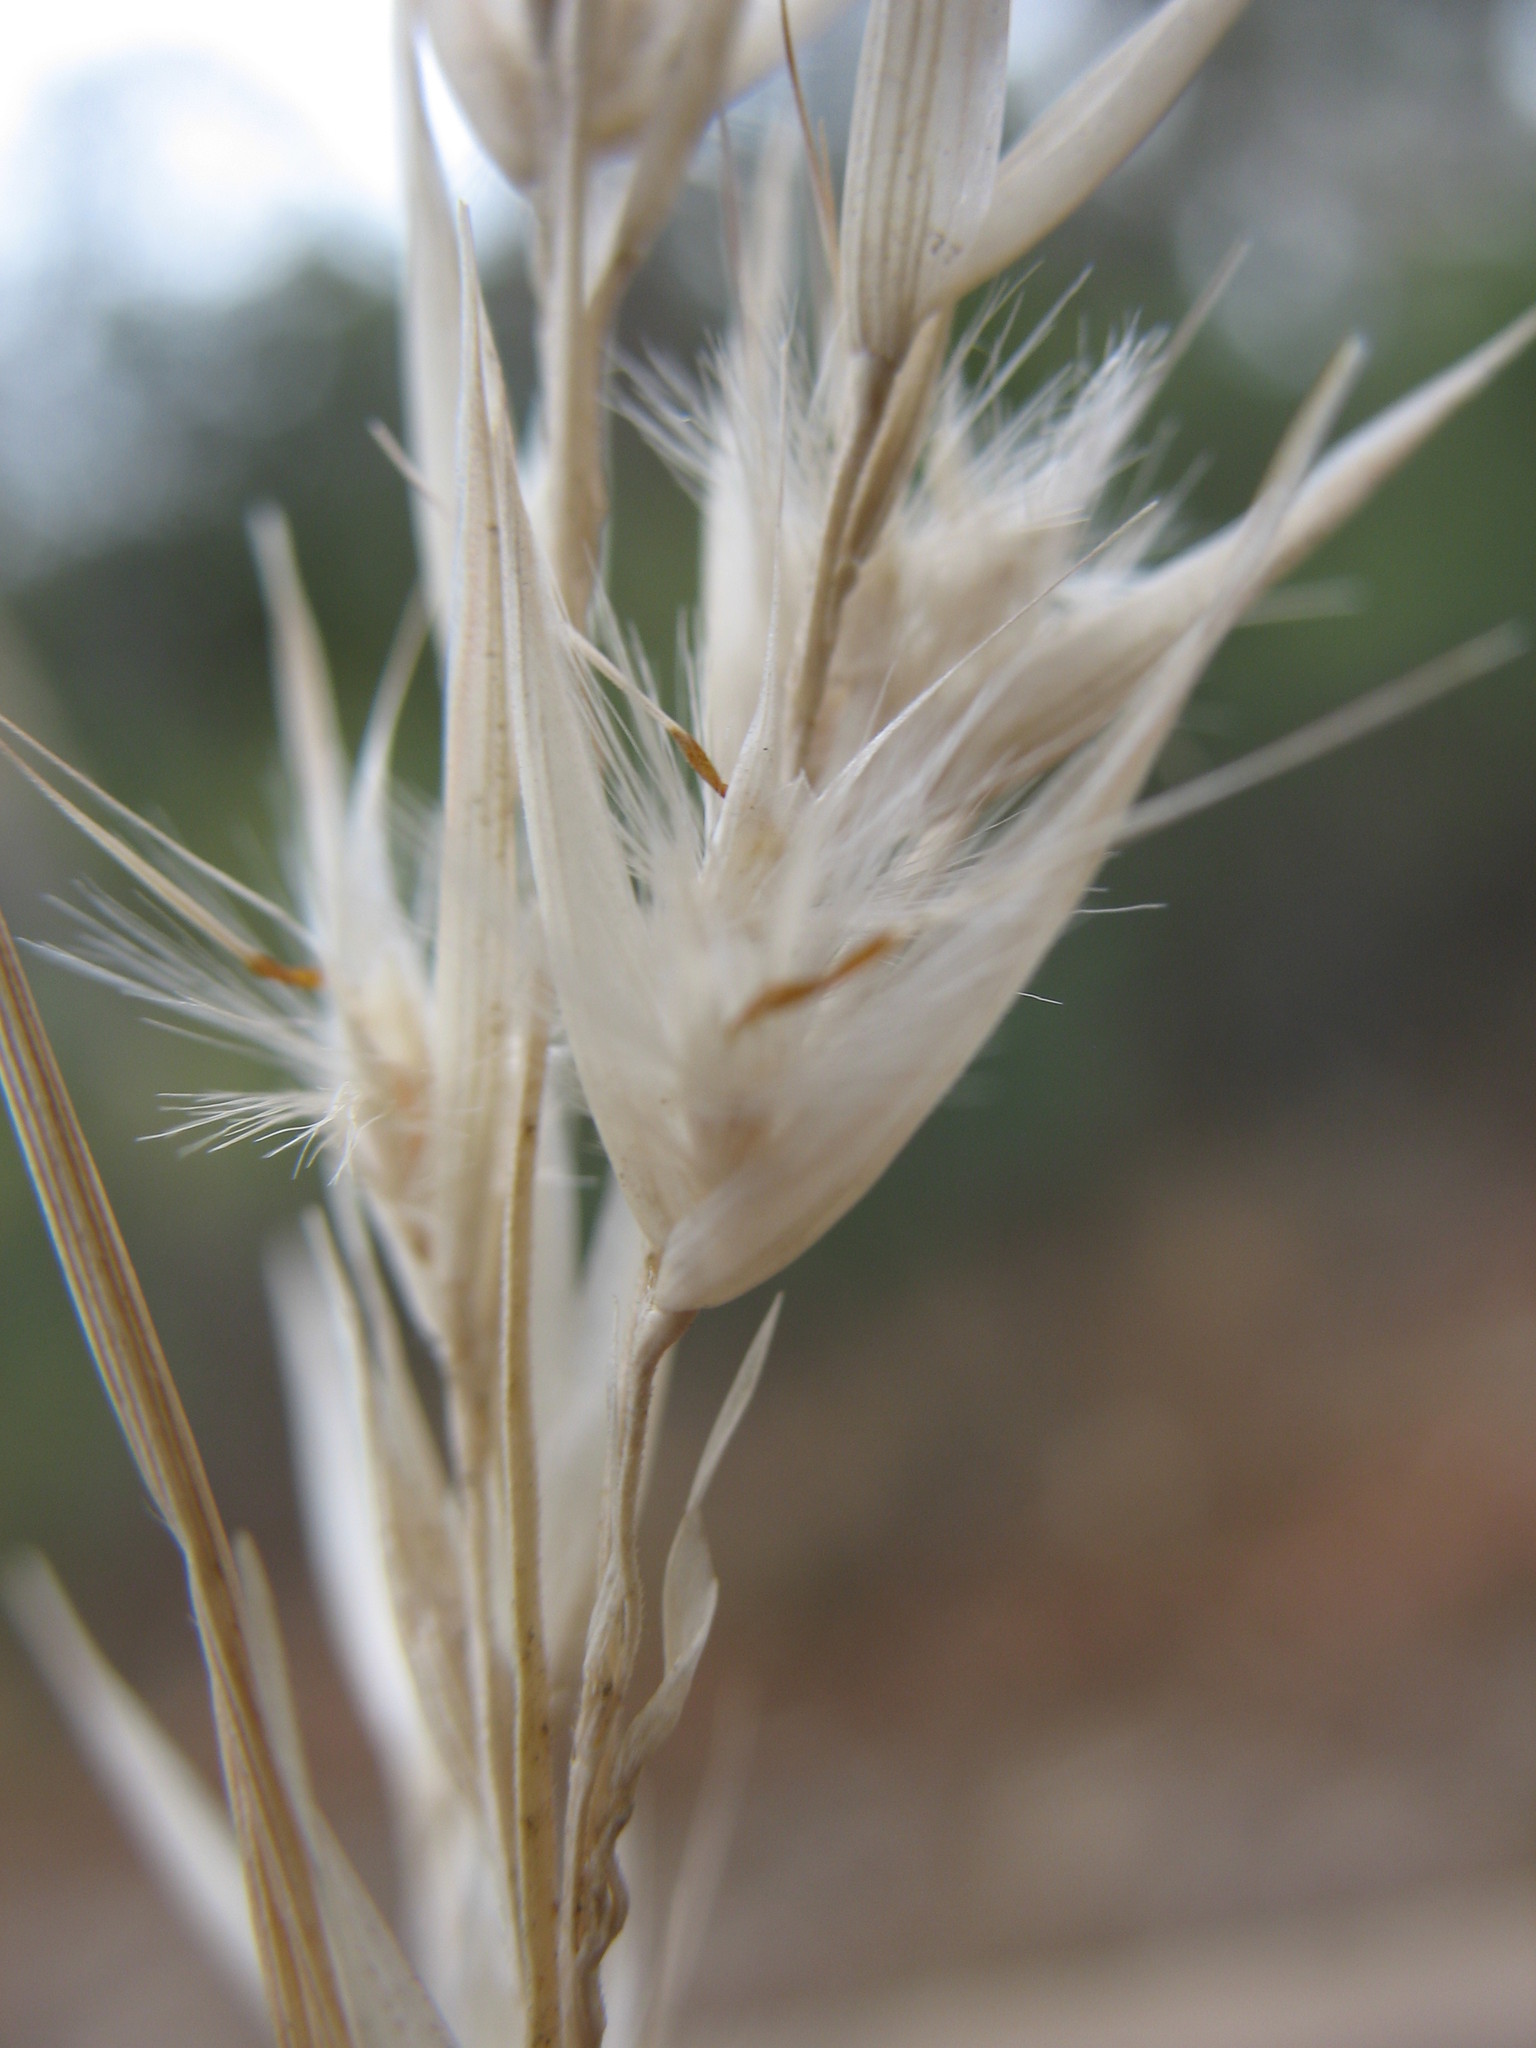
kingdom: Plantae
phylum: Tracheophyta
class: Liliopsida
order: Poales
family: Poaceae
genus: Rytidosperma
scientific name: Rytidosperma fulvum
